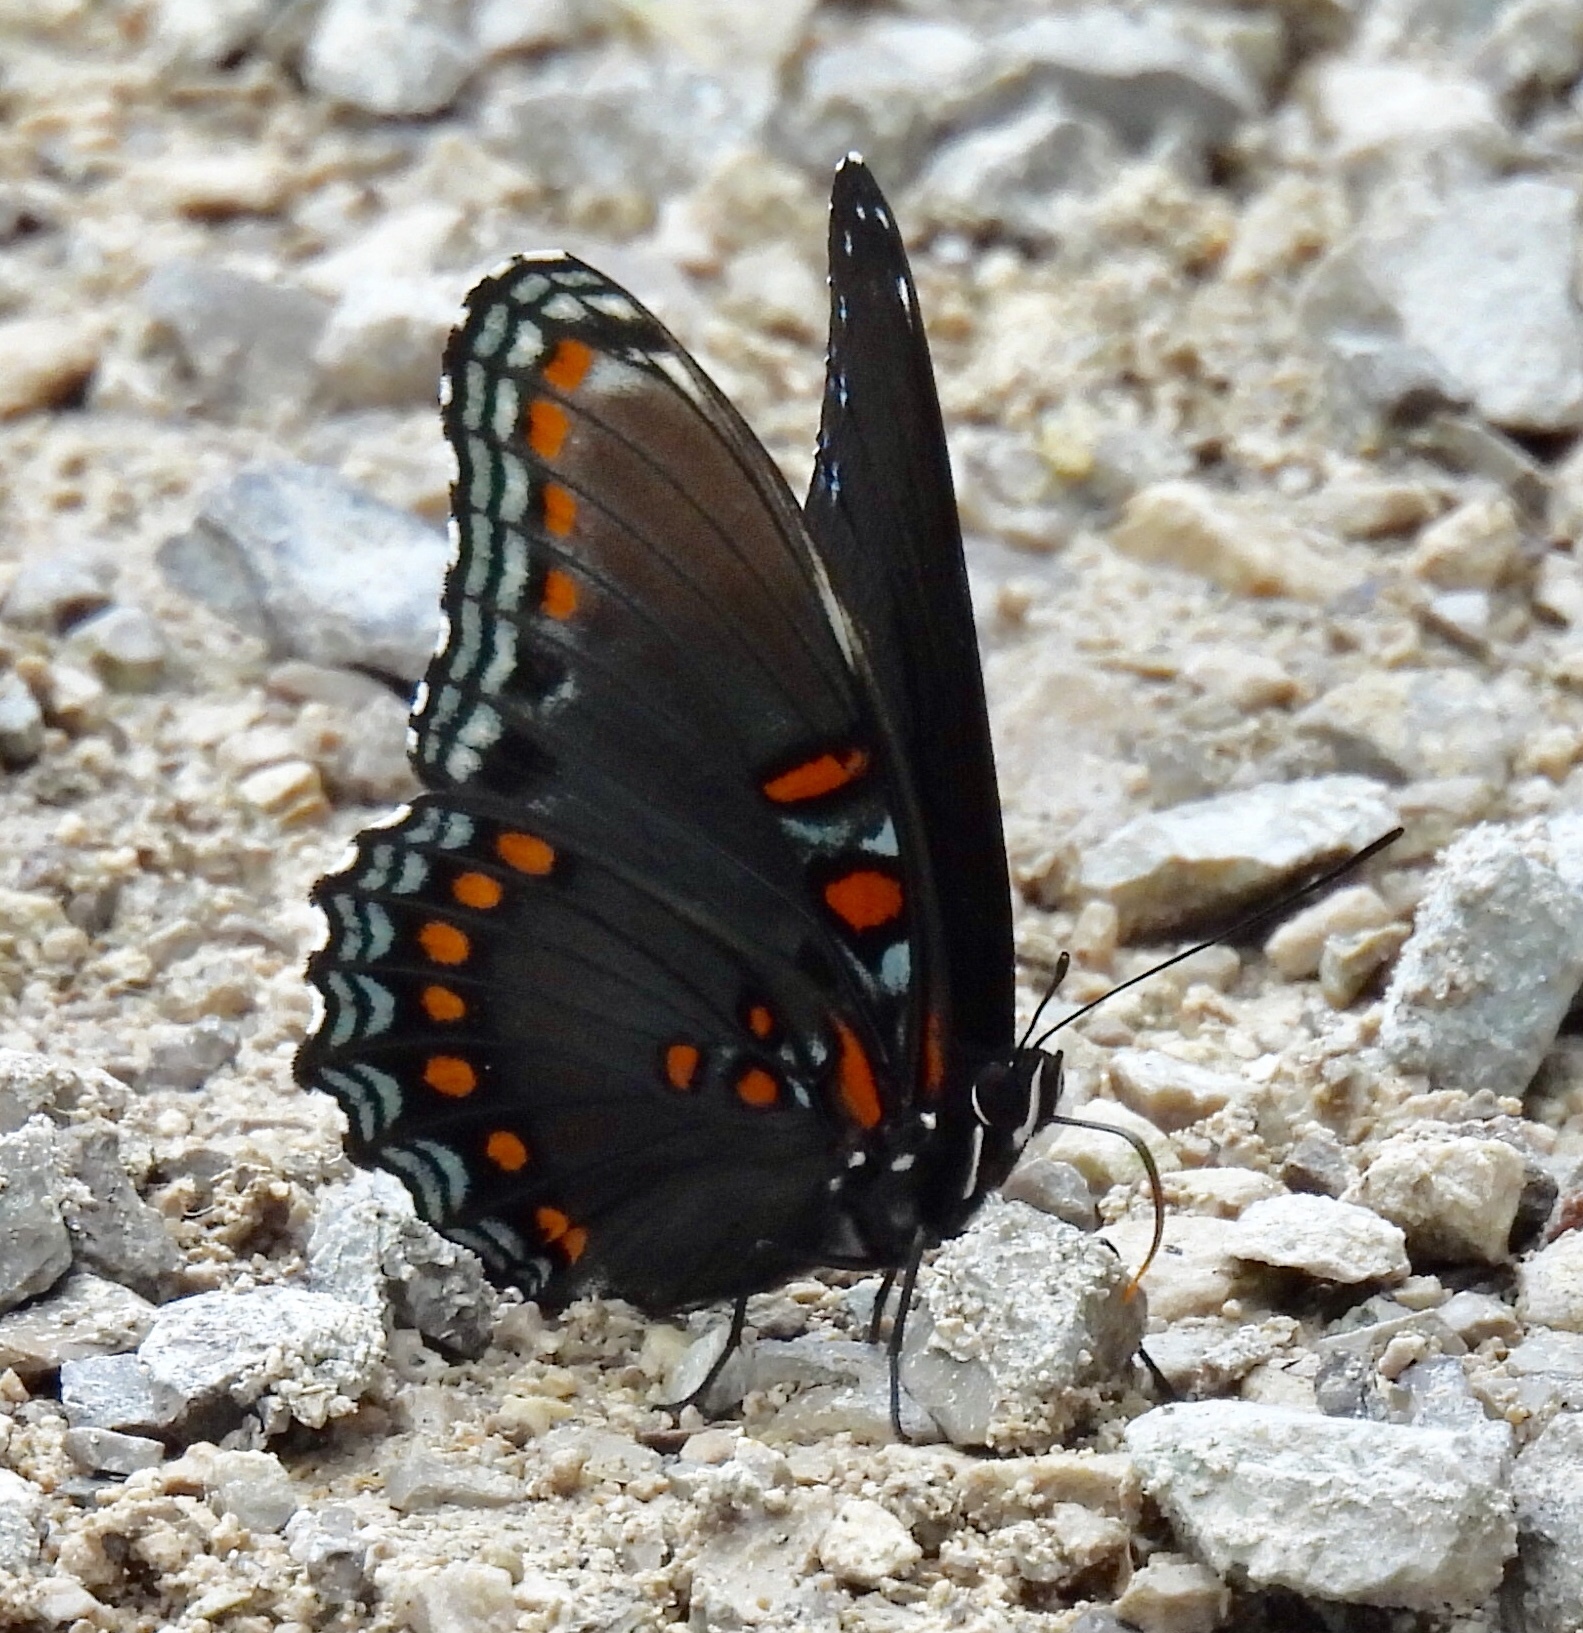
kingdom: Animalia
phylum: Arthropoda
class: Insecta
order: Lepidoptera
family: Nymphalidae
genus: Limenitis
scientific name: Limenitis arthemis
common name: Red-spotted admiral
